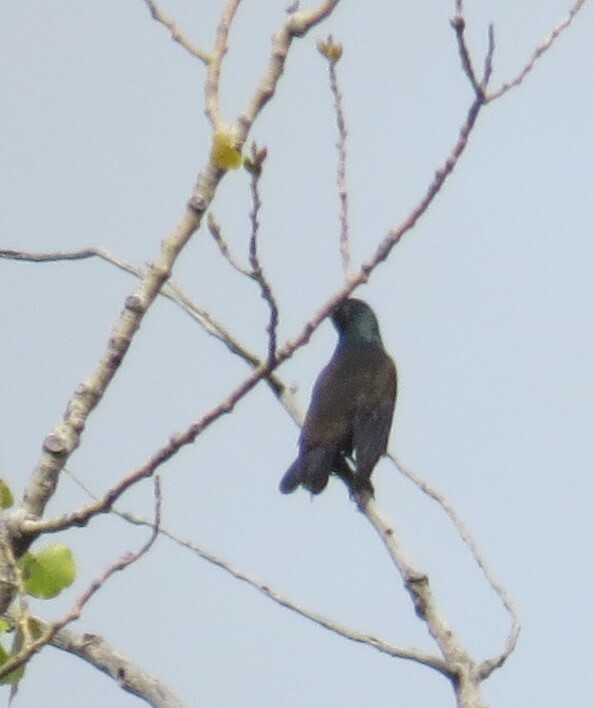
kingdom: Animalia
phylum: Chordata
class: Aves
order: Passeriformes
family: Icteridae
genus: Quiscalus
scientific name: Quiscalus quiscula
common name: Common grackle
